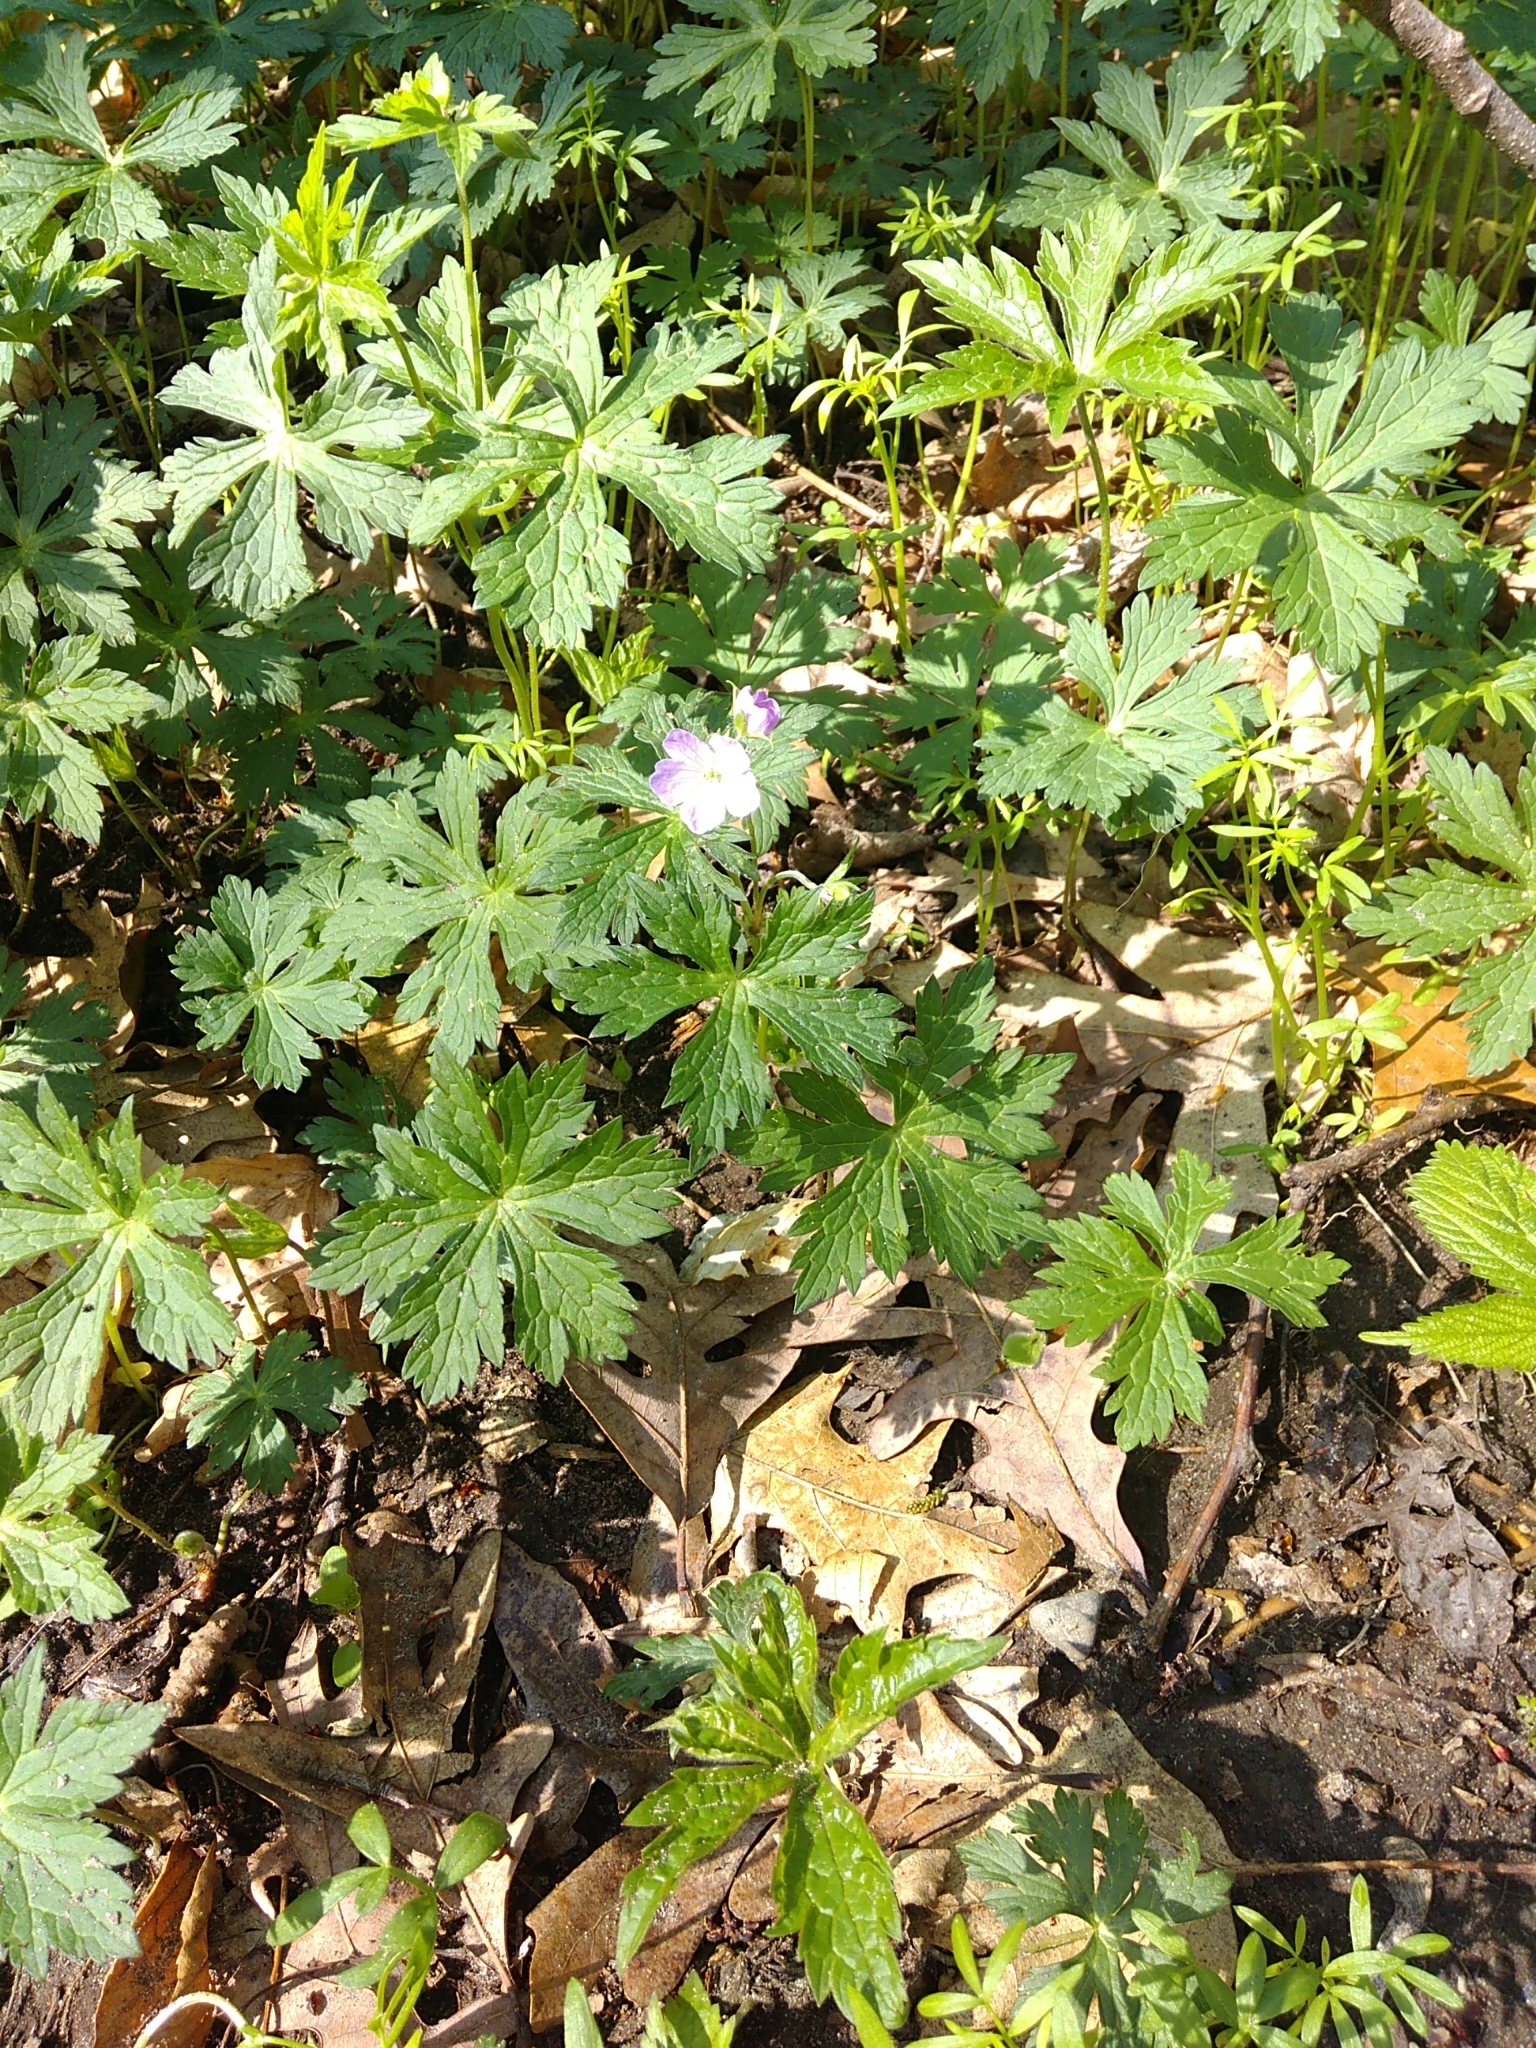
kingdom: Plantae
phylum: Tracheophyta
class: Magnoliopsida
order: Geraniales
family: Geraniaceae
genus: Geranium
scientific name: Geranium maculatum
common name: Spotted geranium
